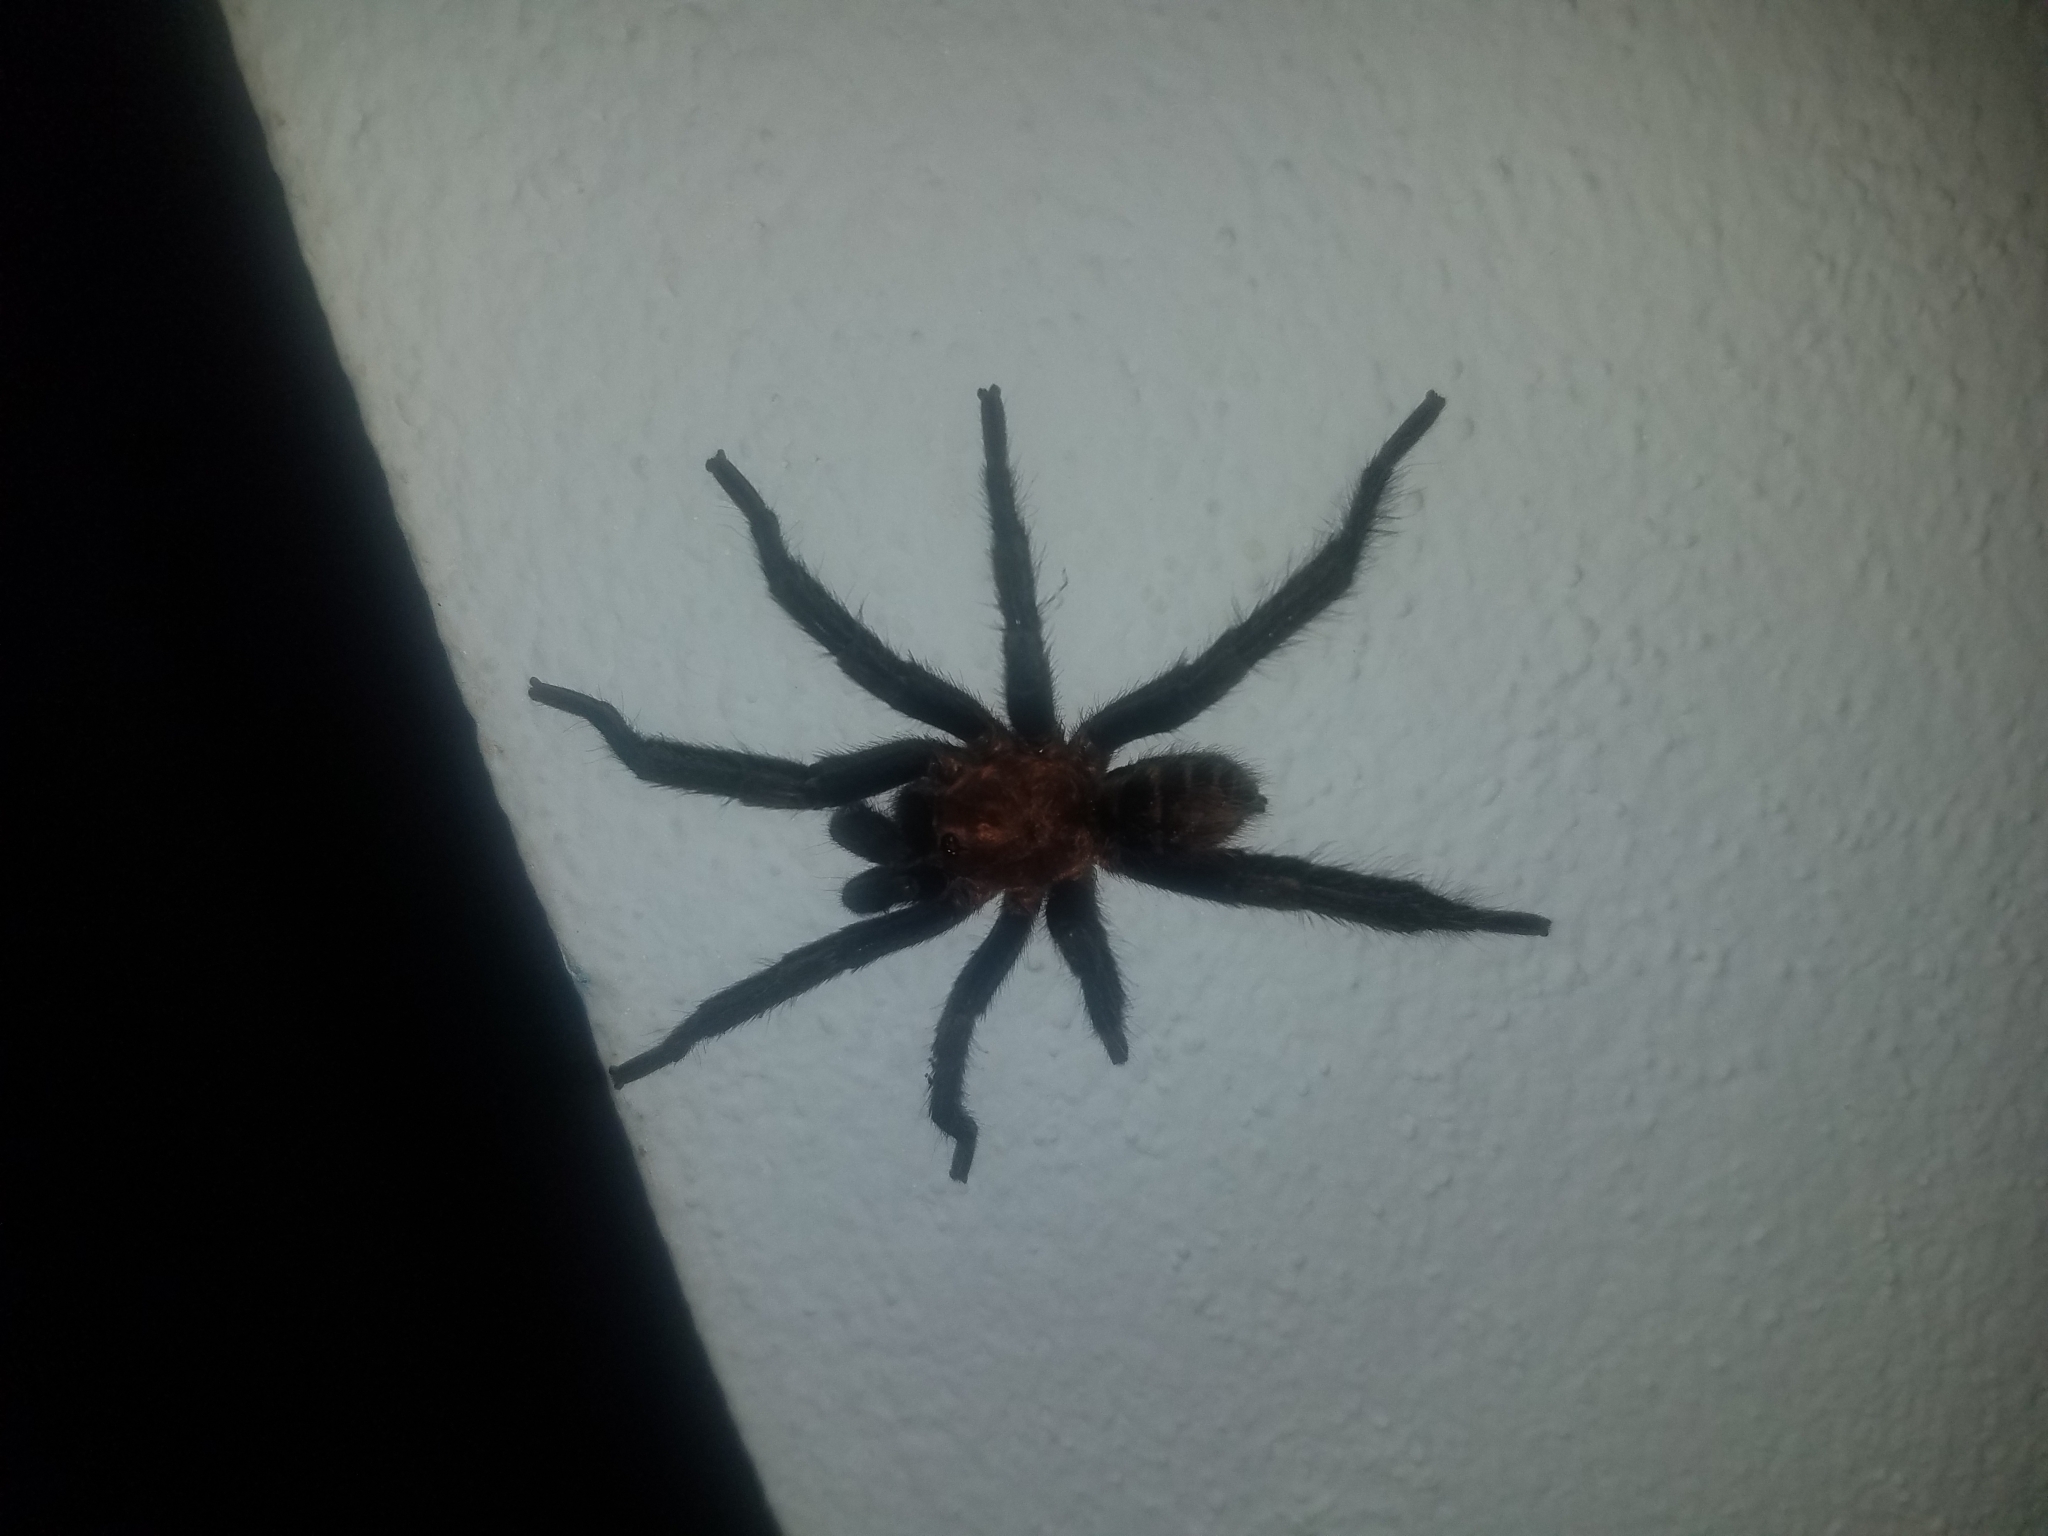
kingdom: Animalia
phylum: Arthropoda
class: Arachnida
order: Araneae
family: Theraphosidae
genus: Davus
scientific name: Davus ruficeps
